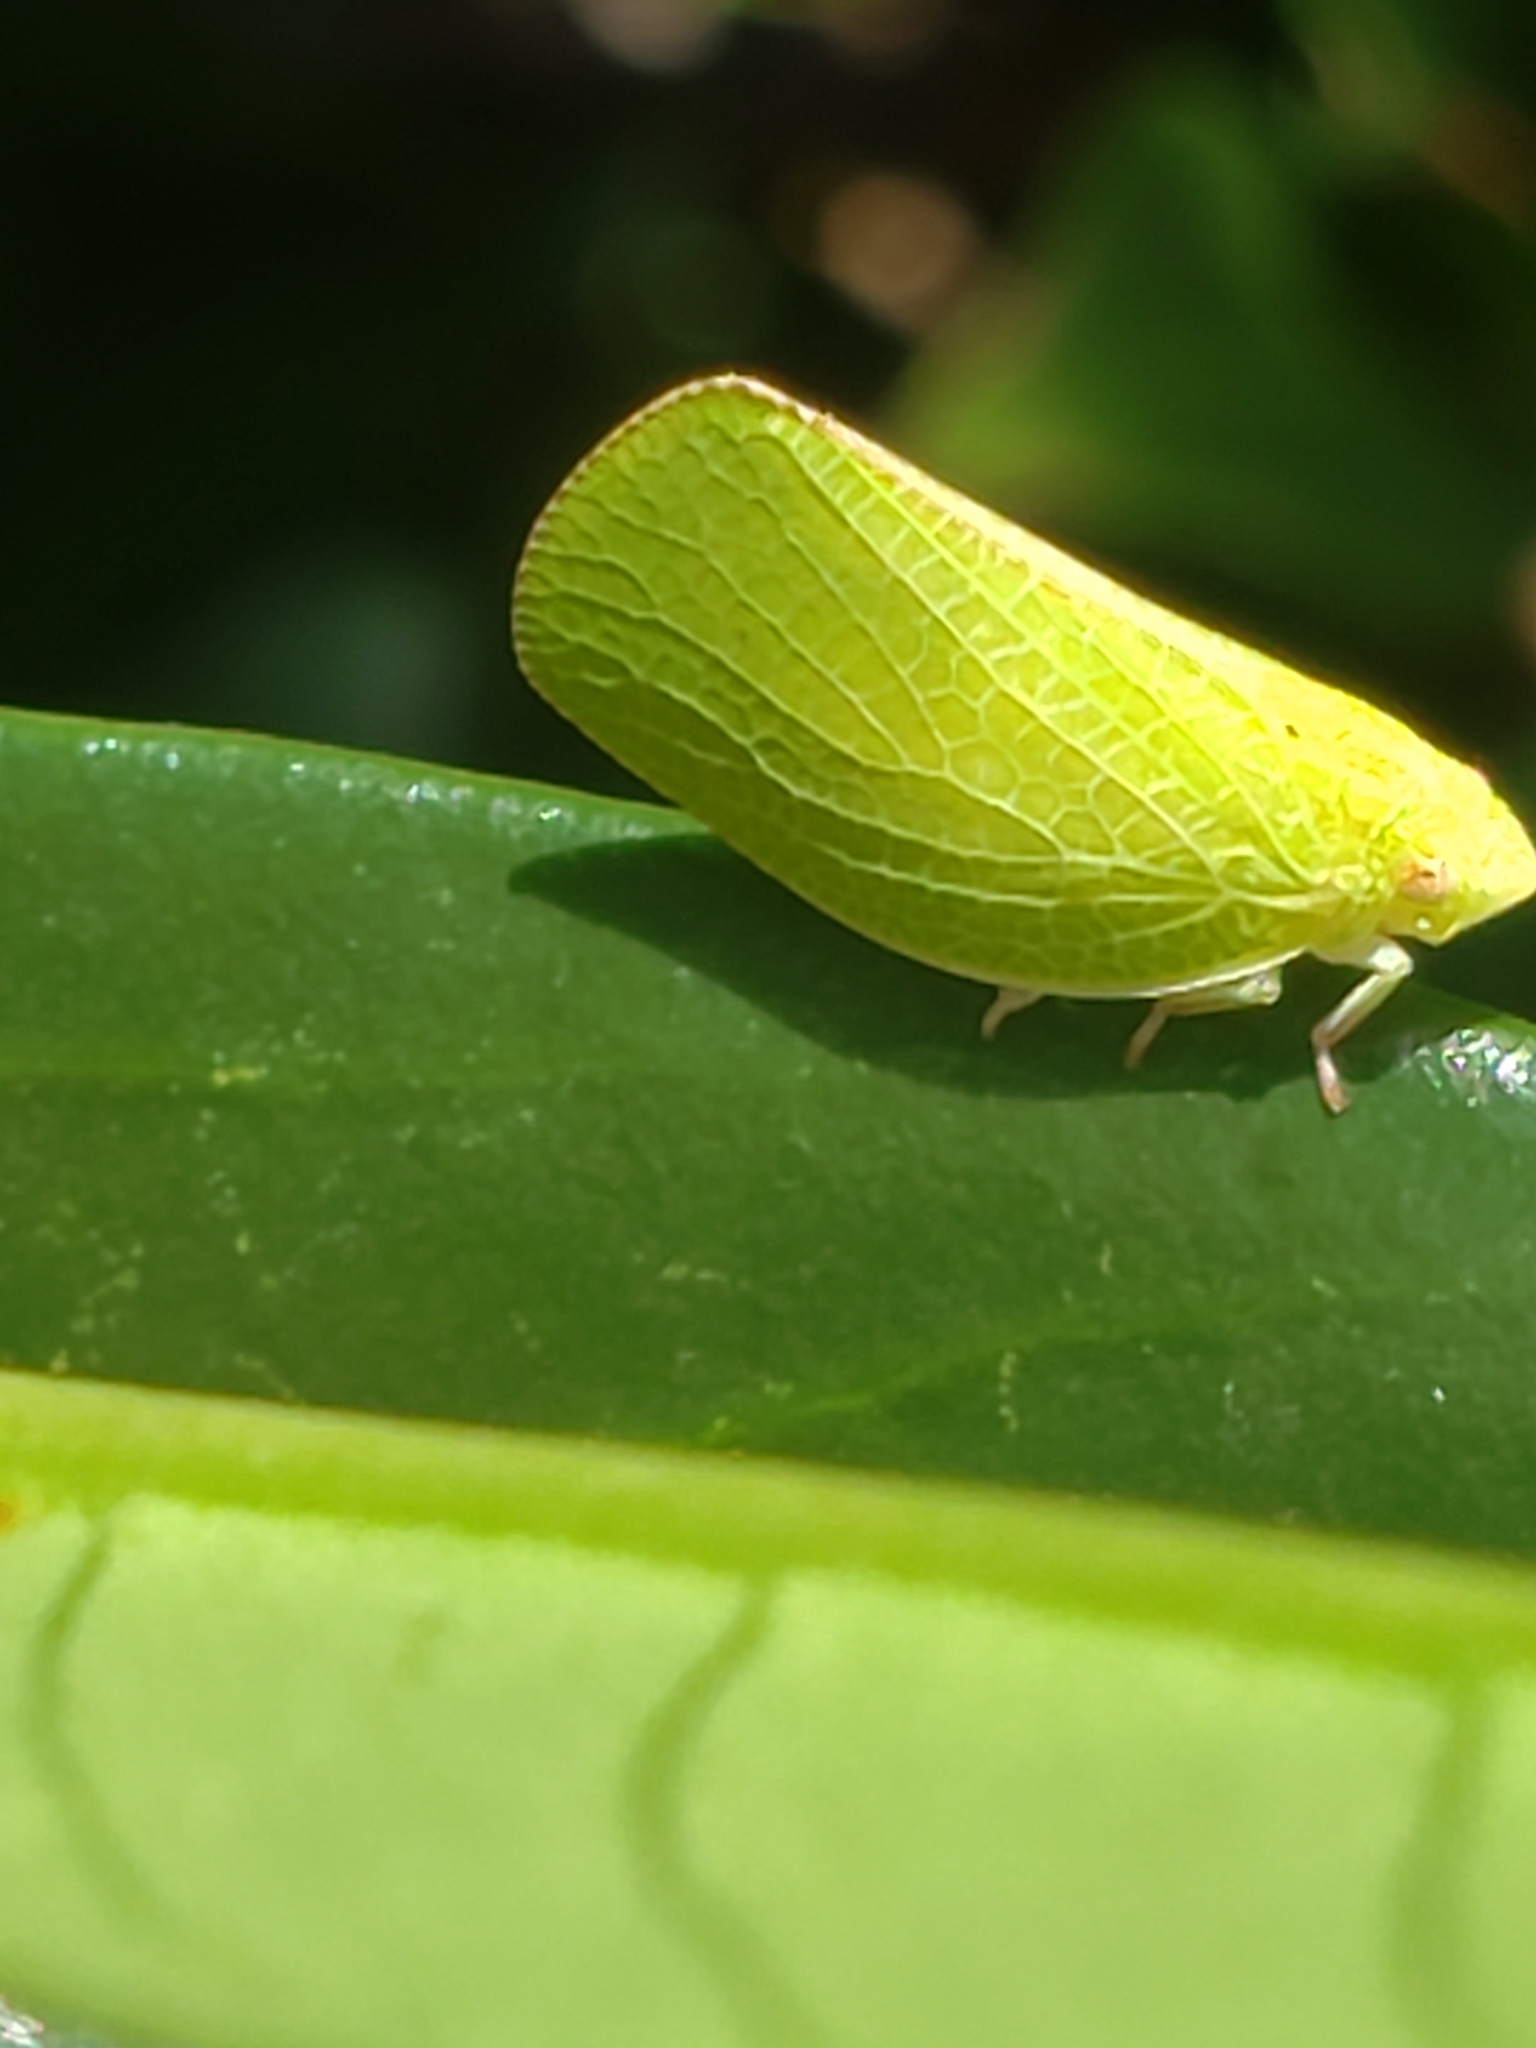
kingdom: Animalia
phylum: Arthropoda
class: Insecta
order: Hemiptera
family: Acanaloniidae
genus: Acanalonia
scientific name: Acanalonia conica
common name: Green cone-headed planthopper
